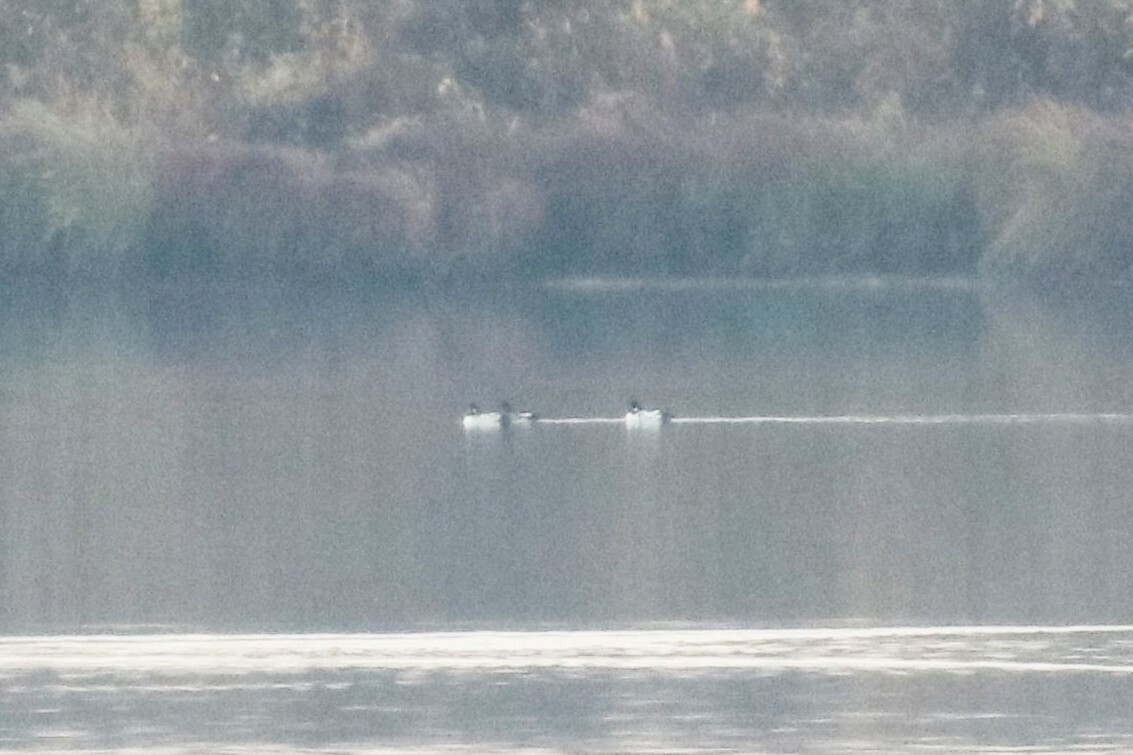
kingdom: Animalia
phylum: Chordata
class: Aves
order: Anseriformes
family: Anatidae
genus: Bucephala
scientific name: Bucephala clangula
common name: Common goldeneye
